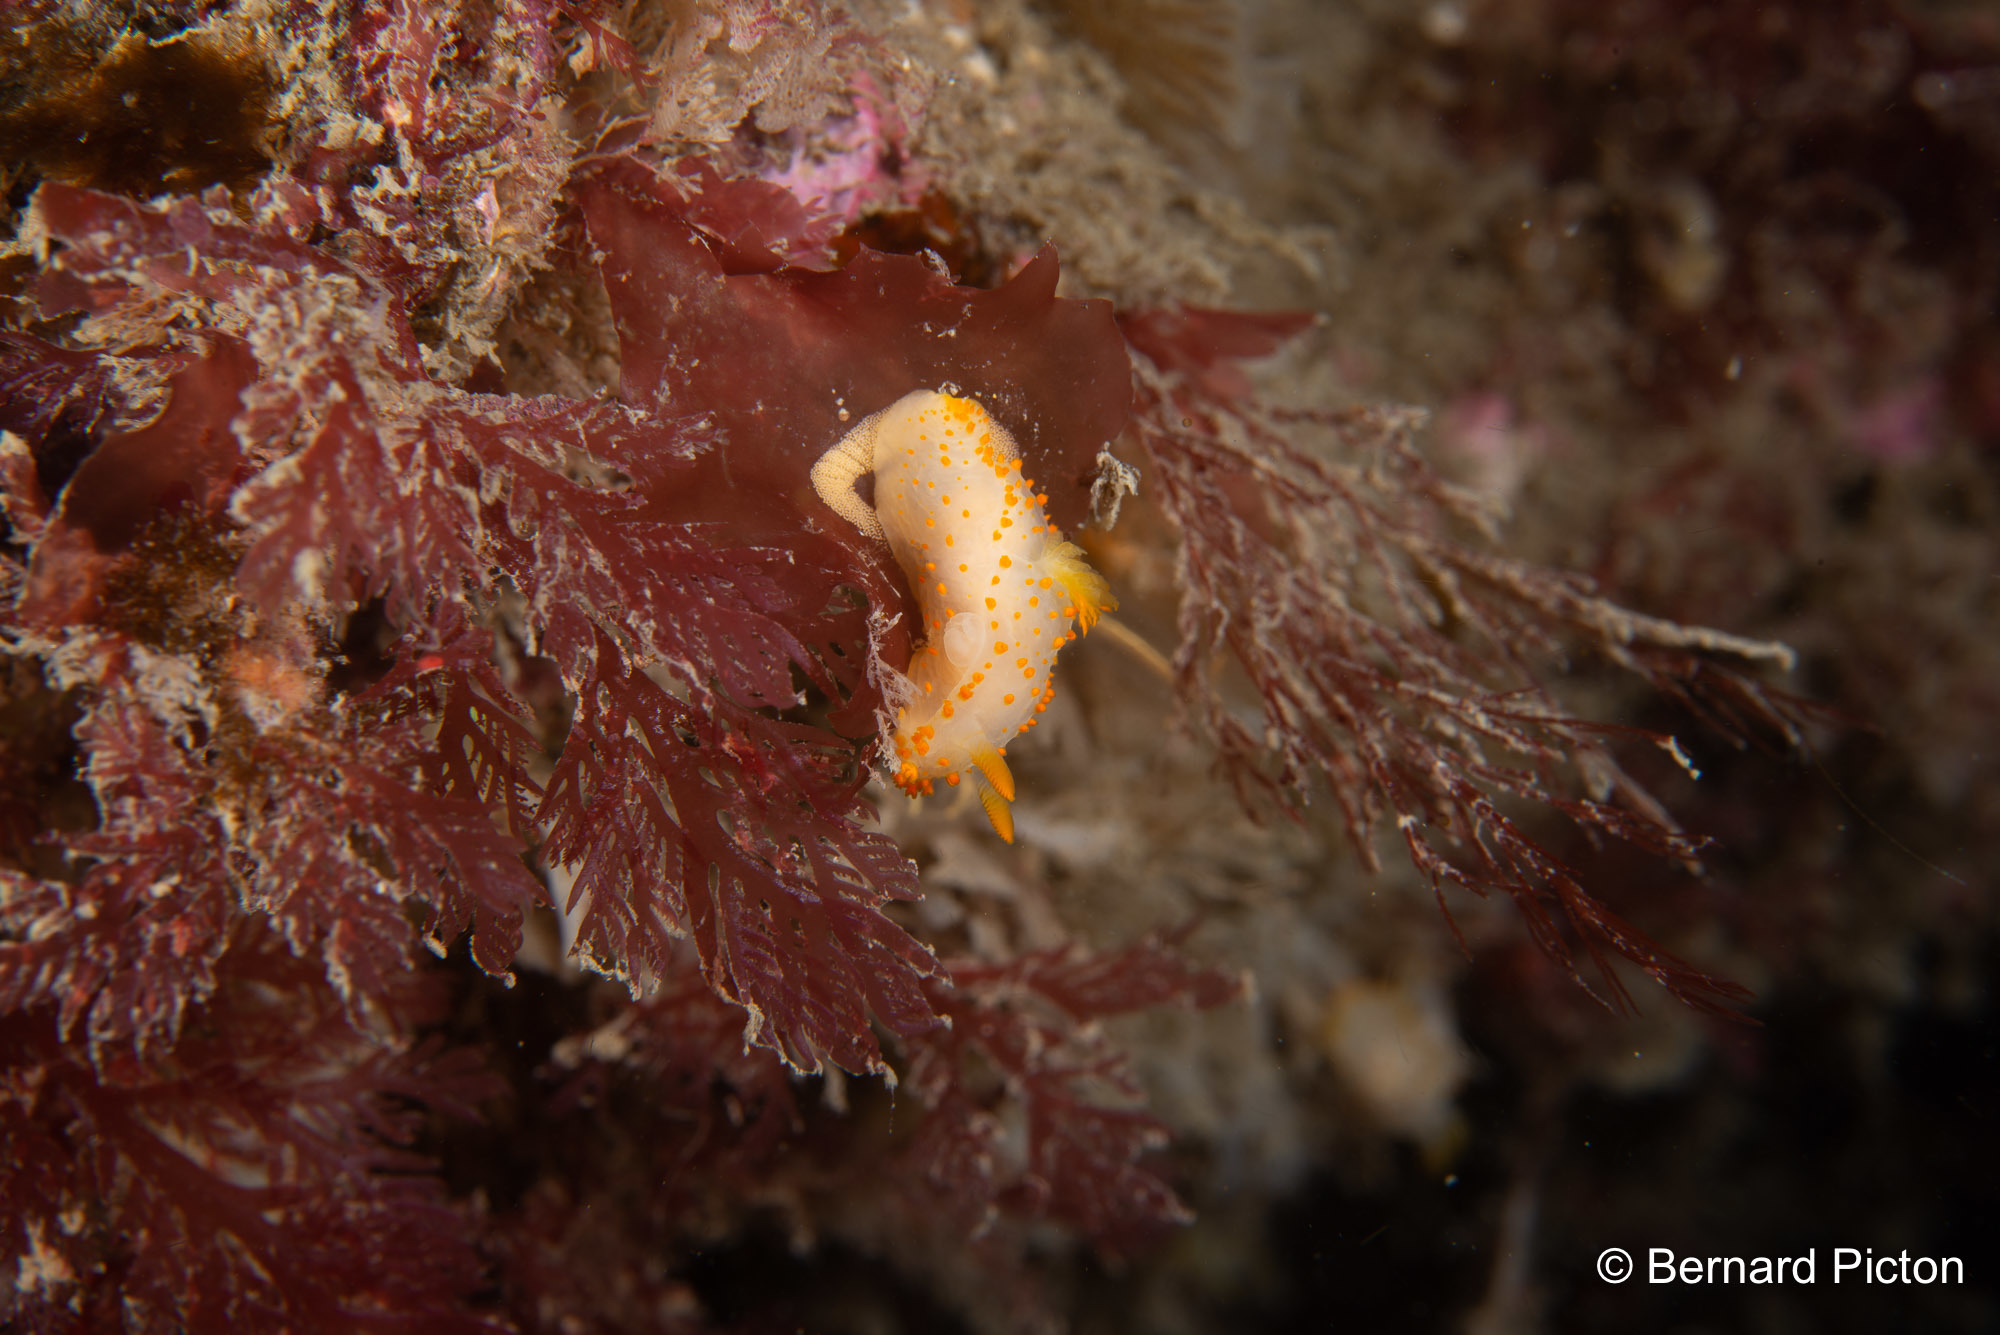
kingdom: Animalia
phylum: Mollusca
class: Gastropoda
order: Nudibranchia
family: Polyceridae
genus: Crimora
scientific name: Crimora papillata
